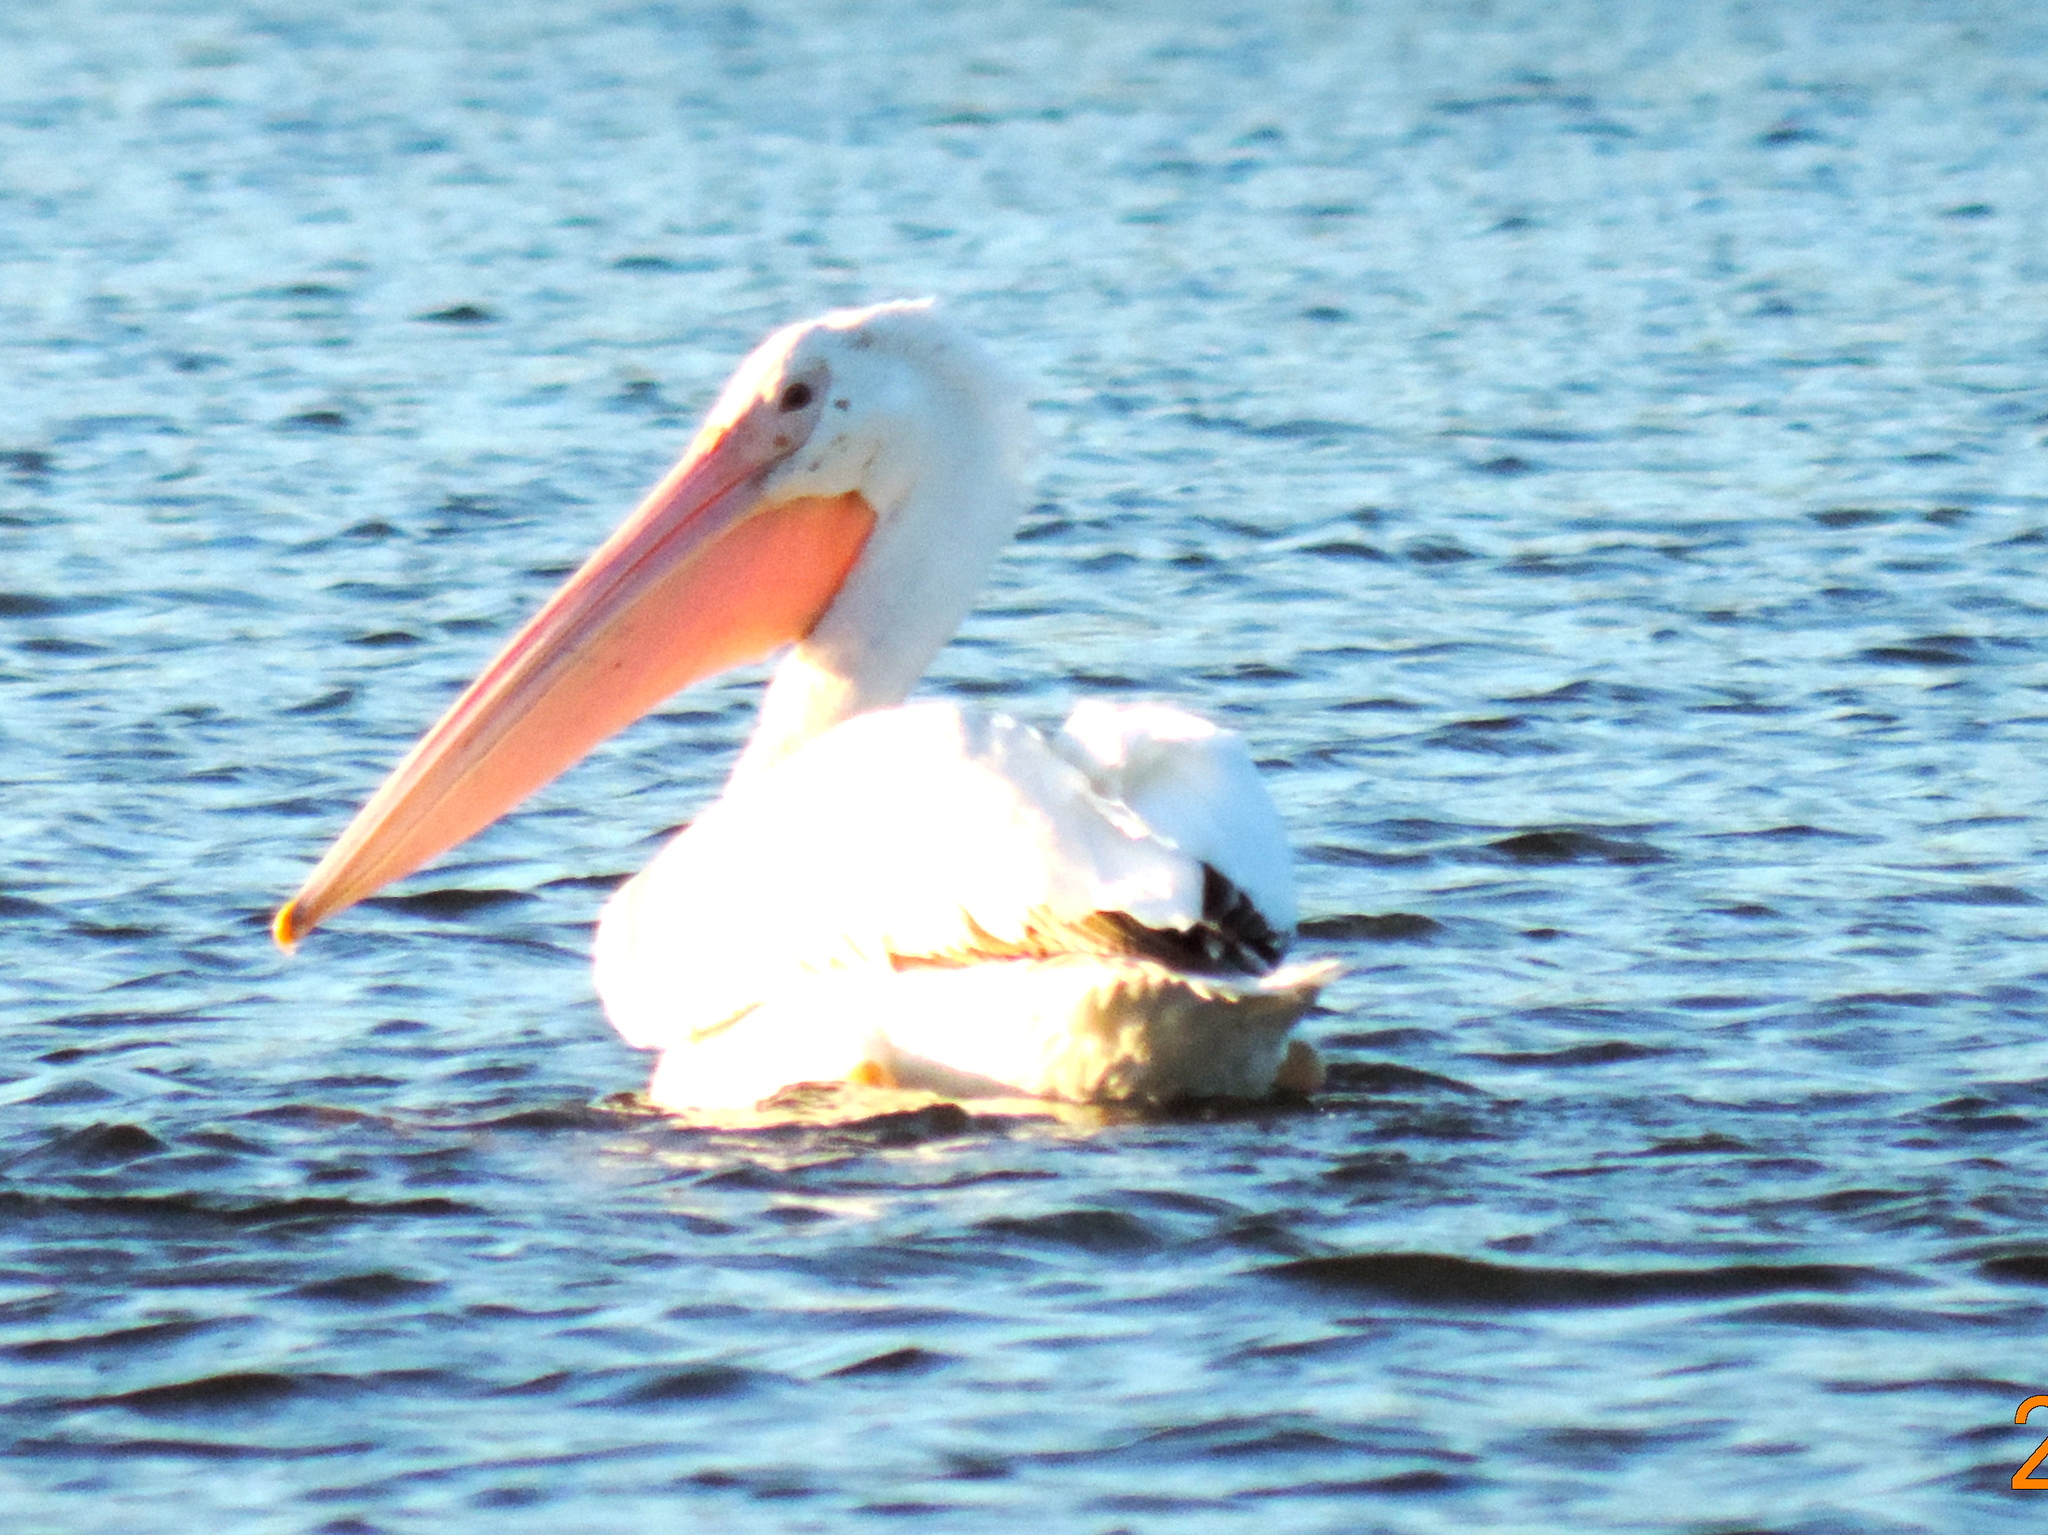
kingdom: Animalia
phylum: Chordata
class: Aves
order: Pelecaniformes
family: Pelecanidae
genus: Pelecanus
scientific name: Pelecanus erythrorhynchos
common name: American white pelican
